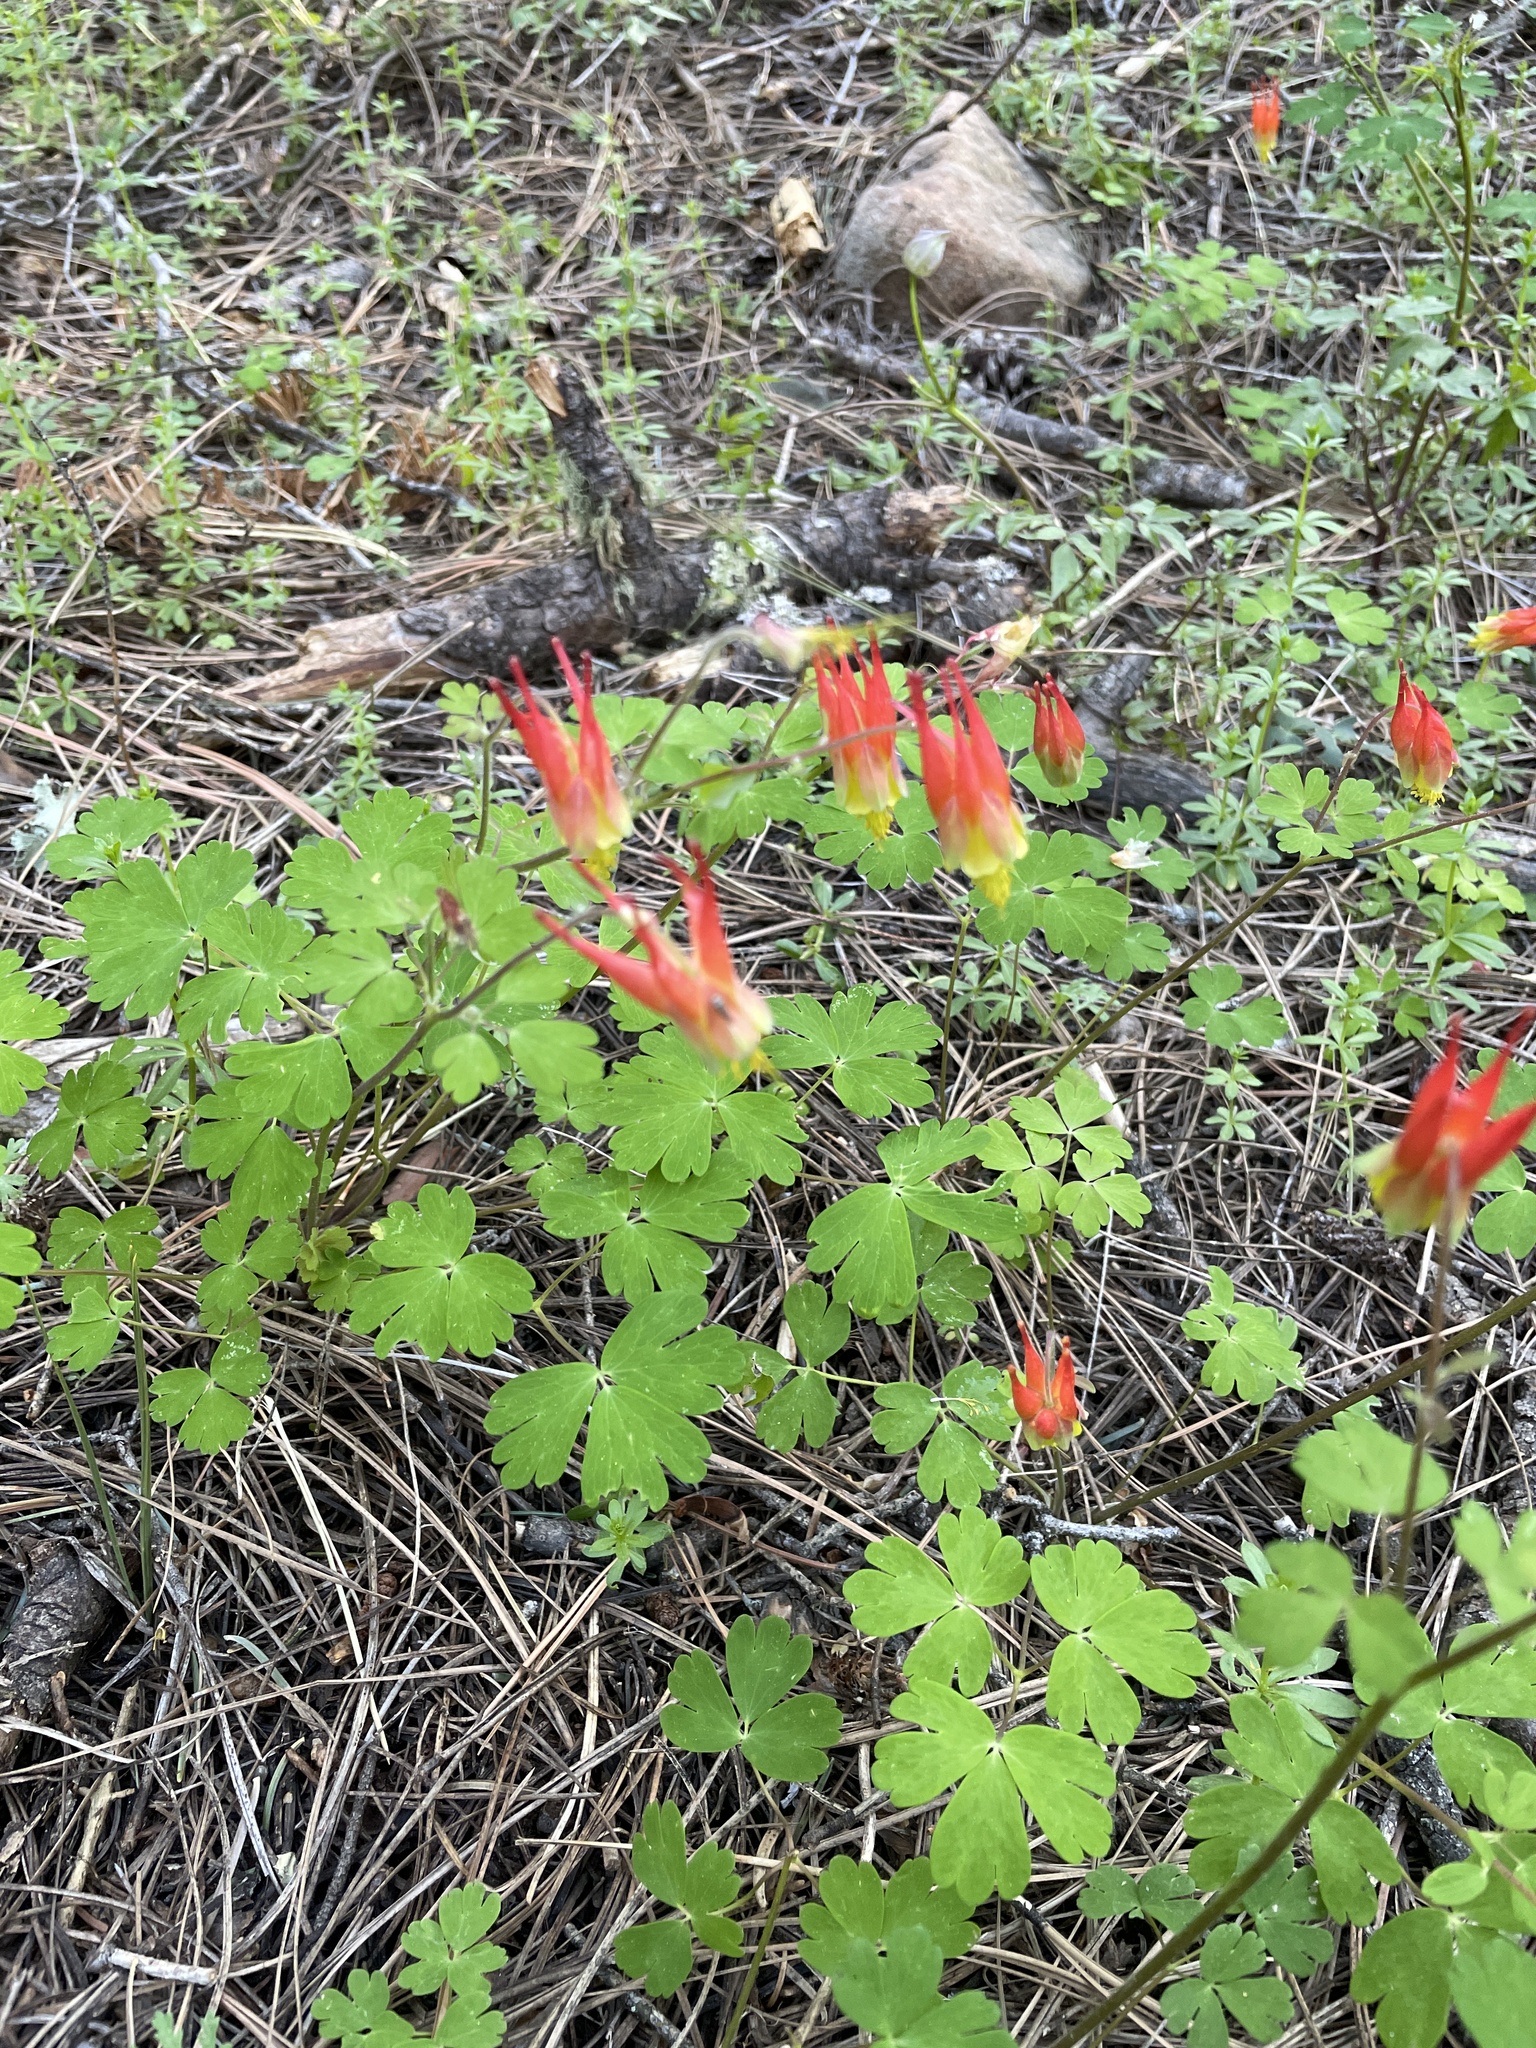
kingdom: Plantae
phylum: Tracheophyta
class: Magnoliopsida
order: Ranunculales
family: Ranunculaceae
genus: Aquilegia
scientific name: Aquilegia elegantula
